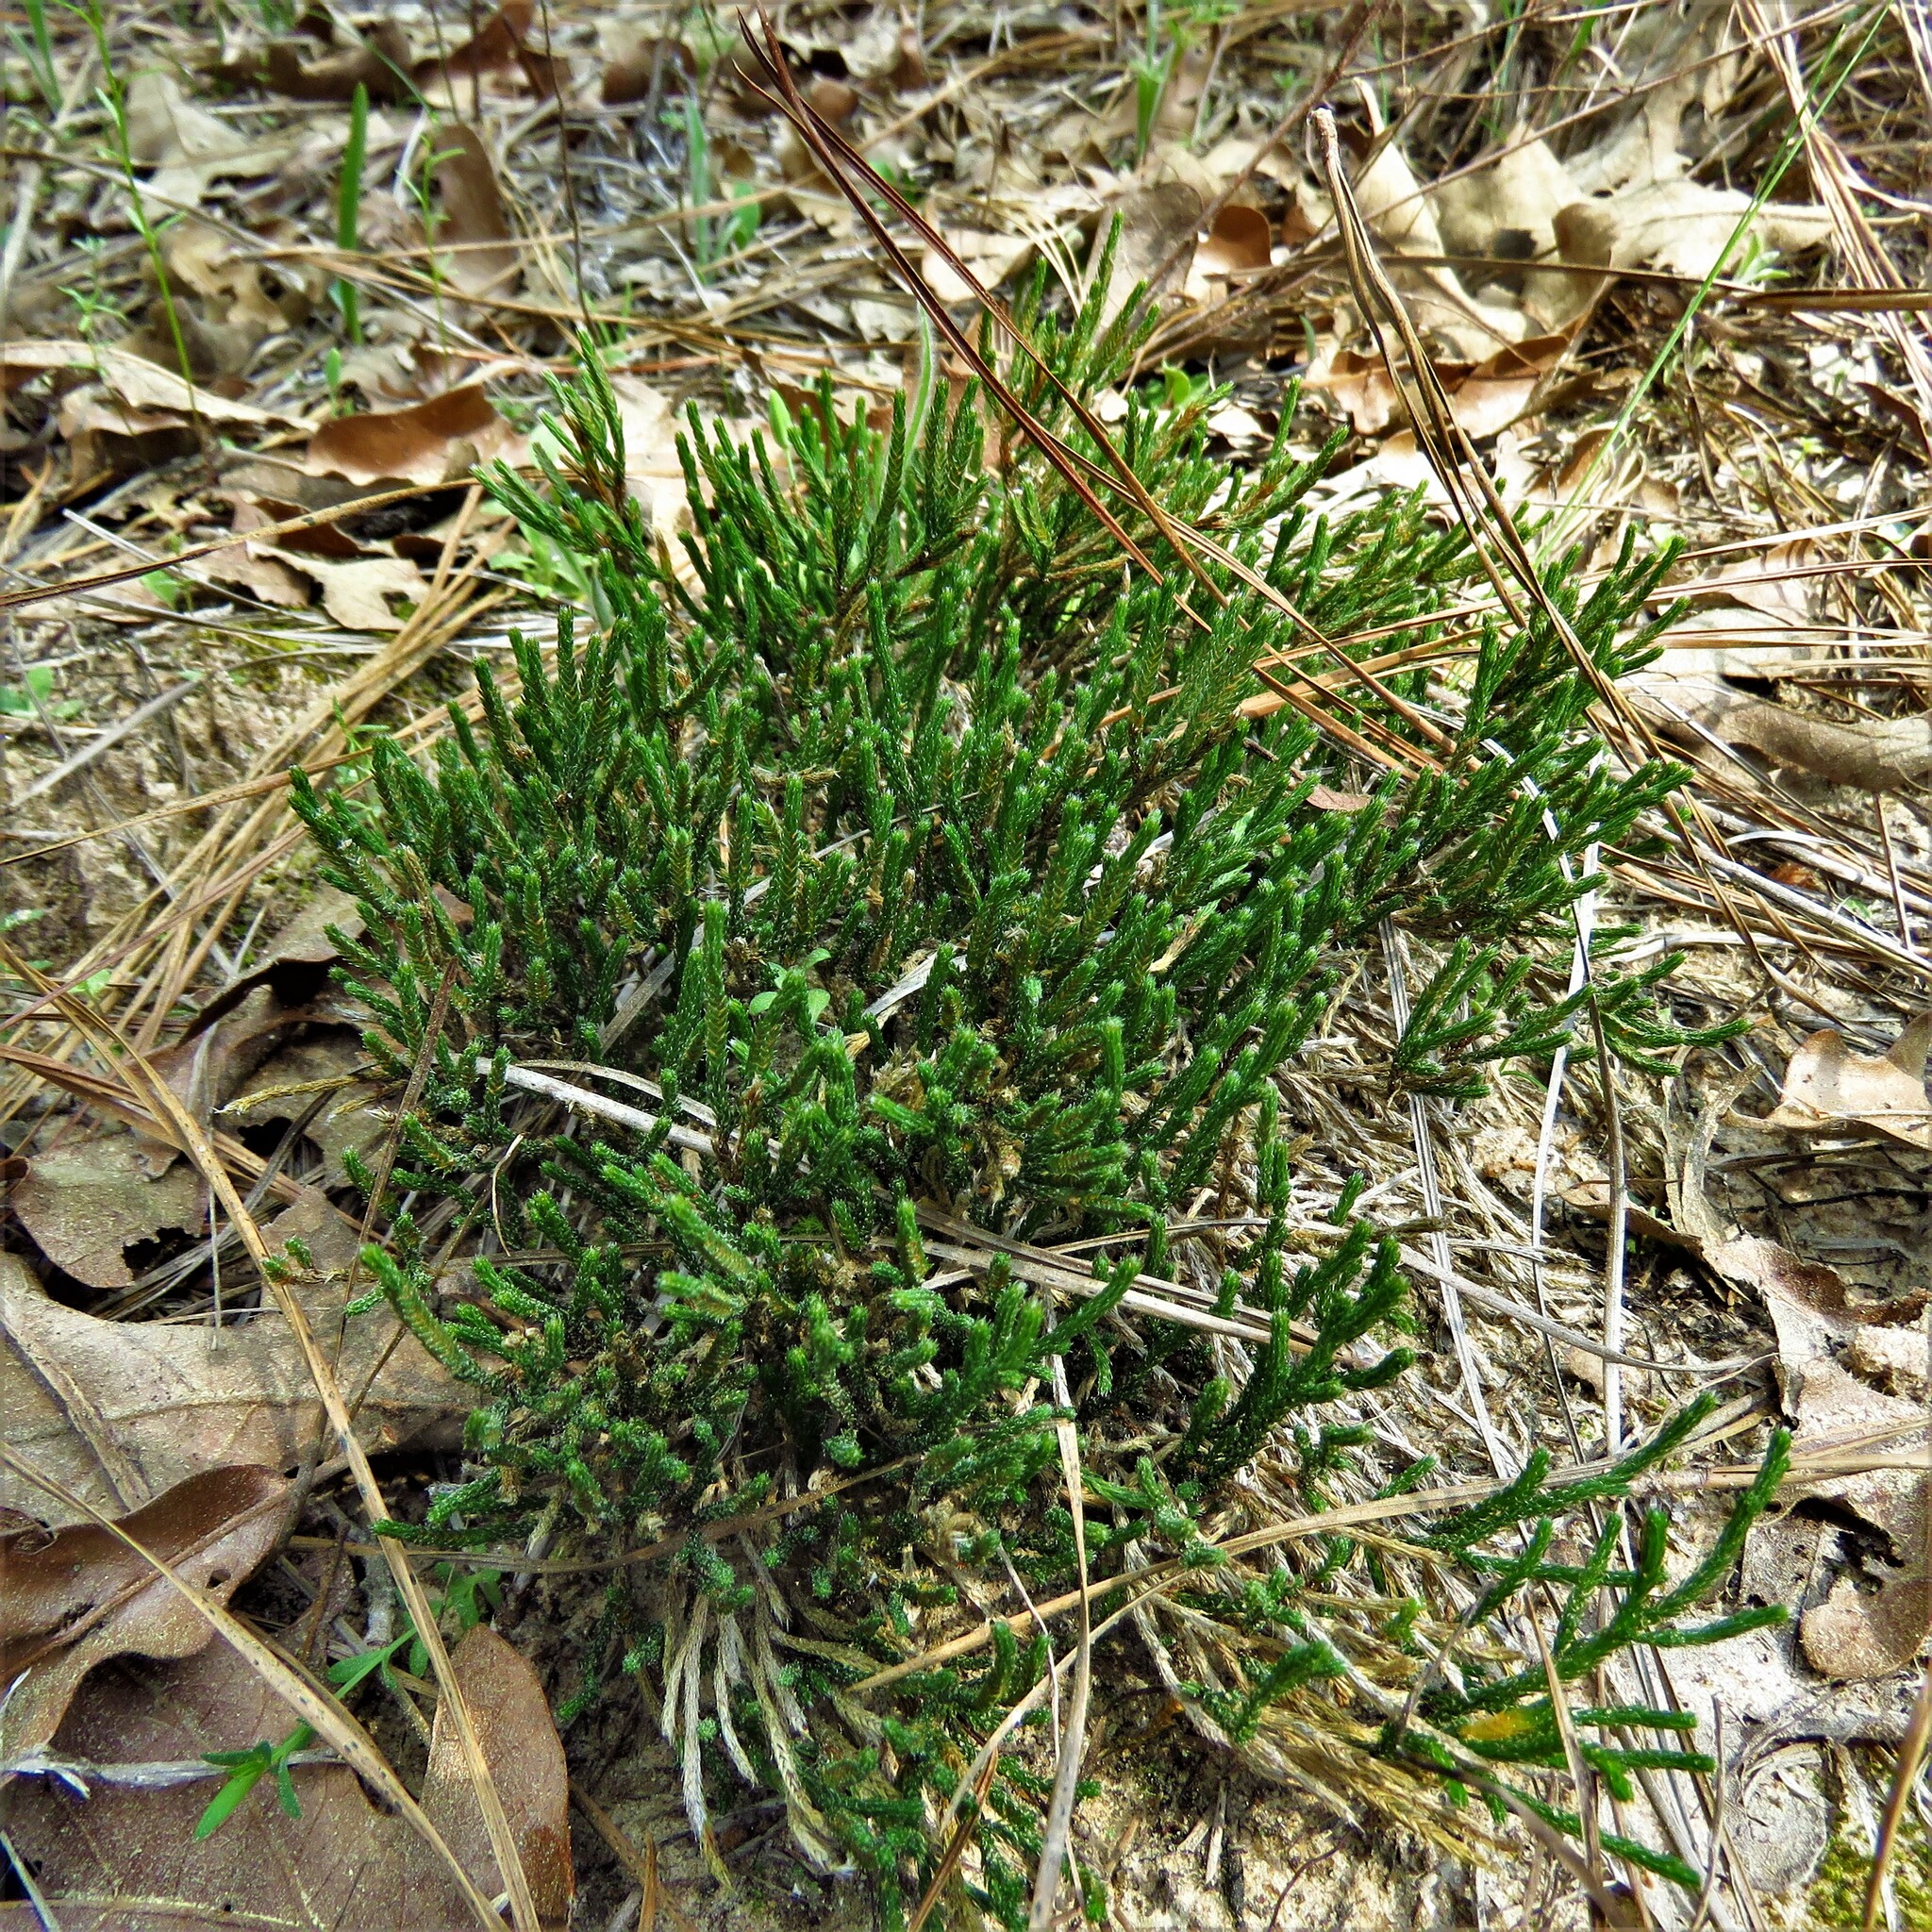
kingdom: Plantae
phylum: Tracheophyta
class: Lycopodiopsida
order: Selaginellales
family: Selaginellaceae
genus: Selaginella
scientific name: Selaginella corallina
